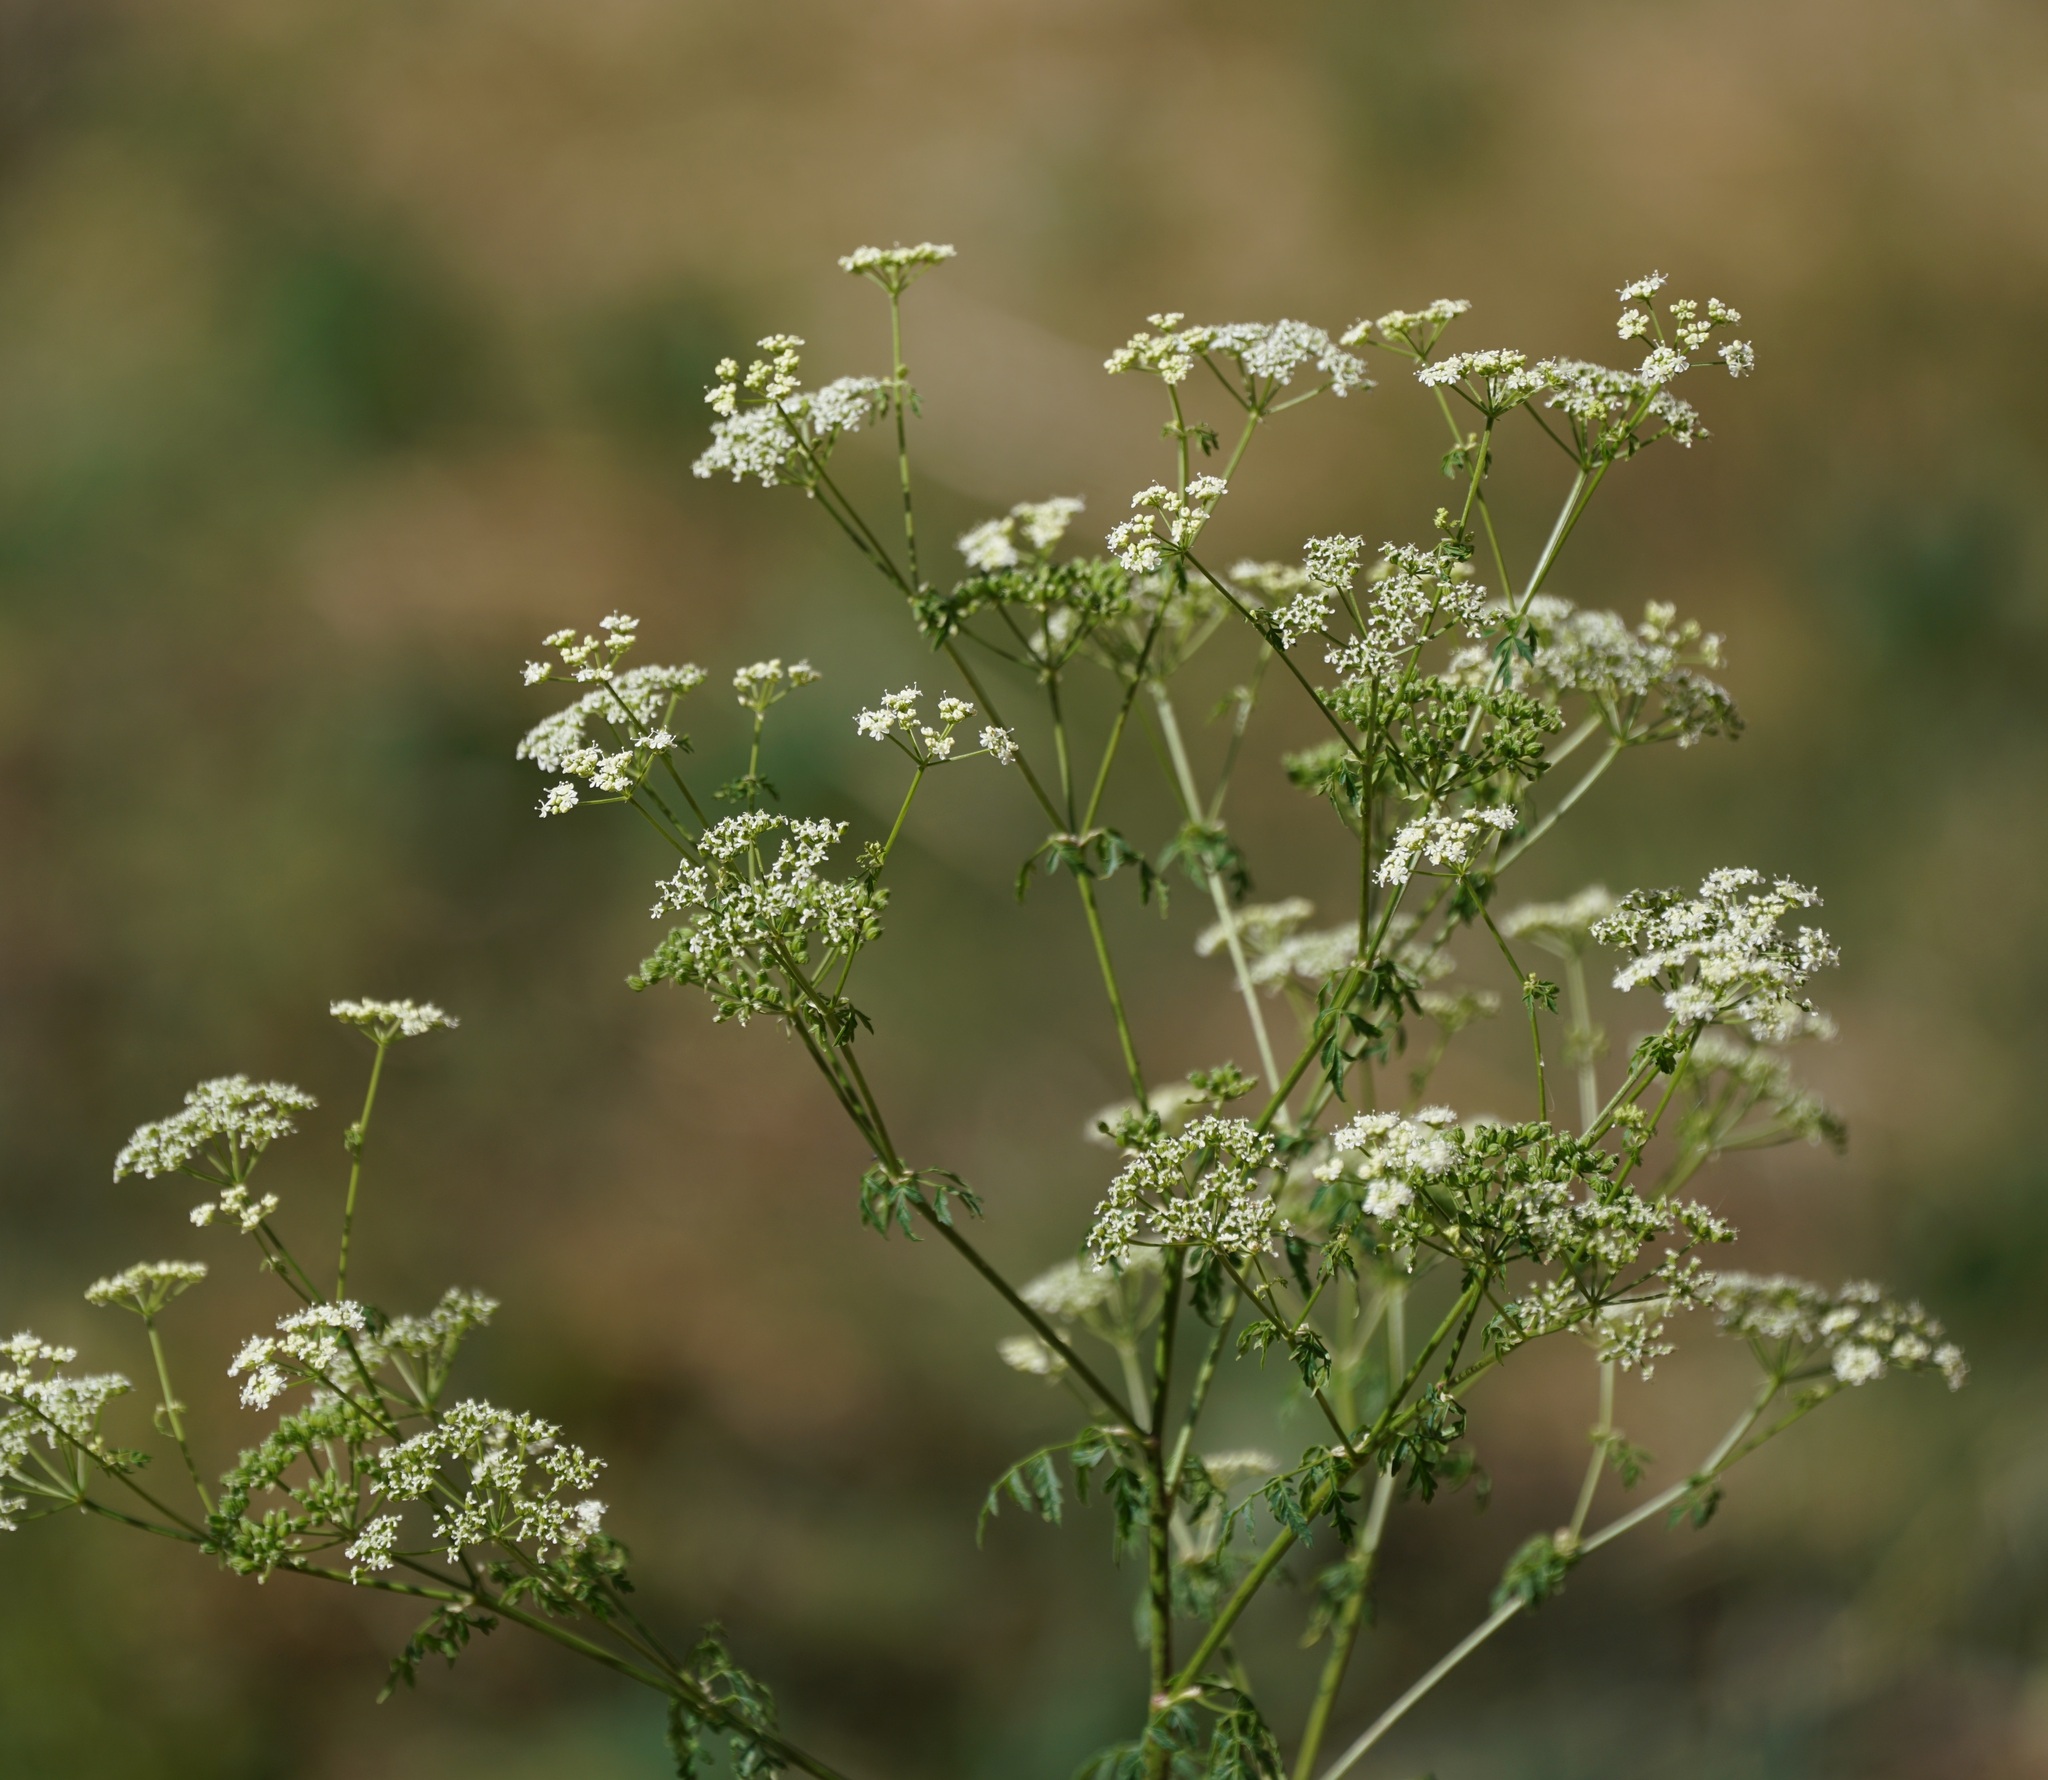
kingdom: Plantae
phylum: Tracheophyta
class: Magnoliopsida
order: Apiales
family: Apiaceae
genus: Conium
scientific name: Conium maculatum
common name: Hemlock
